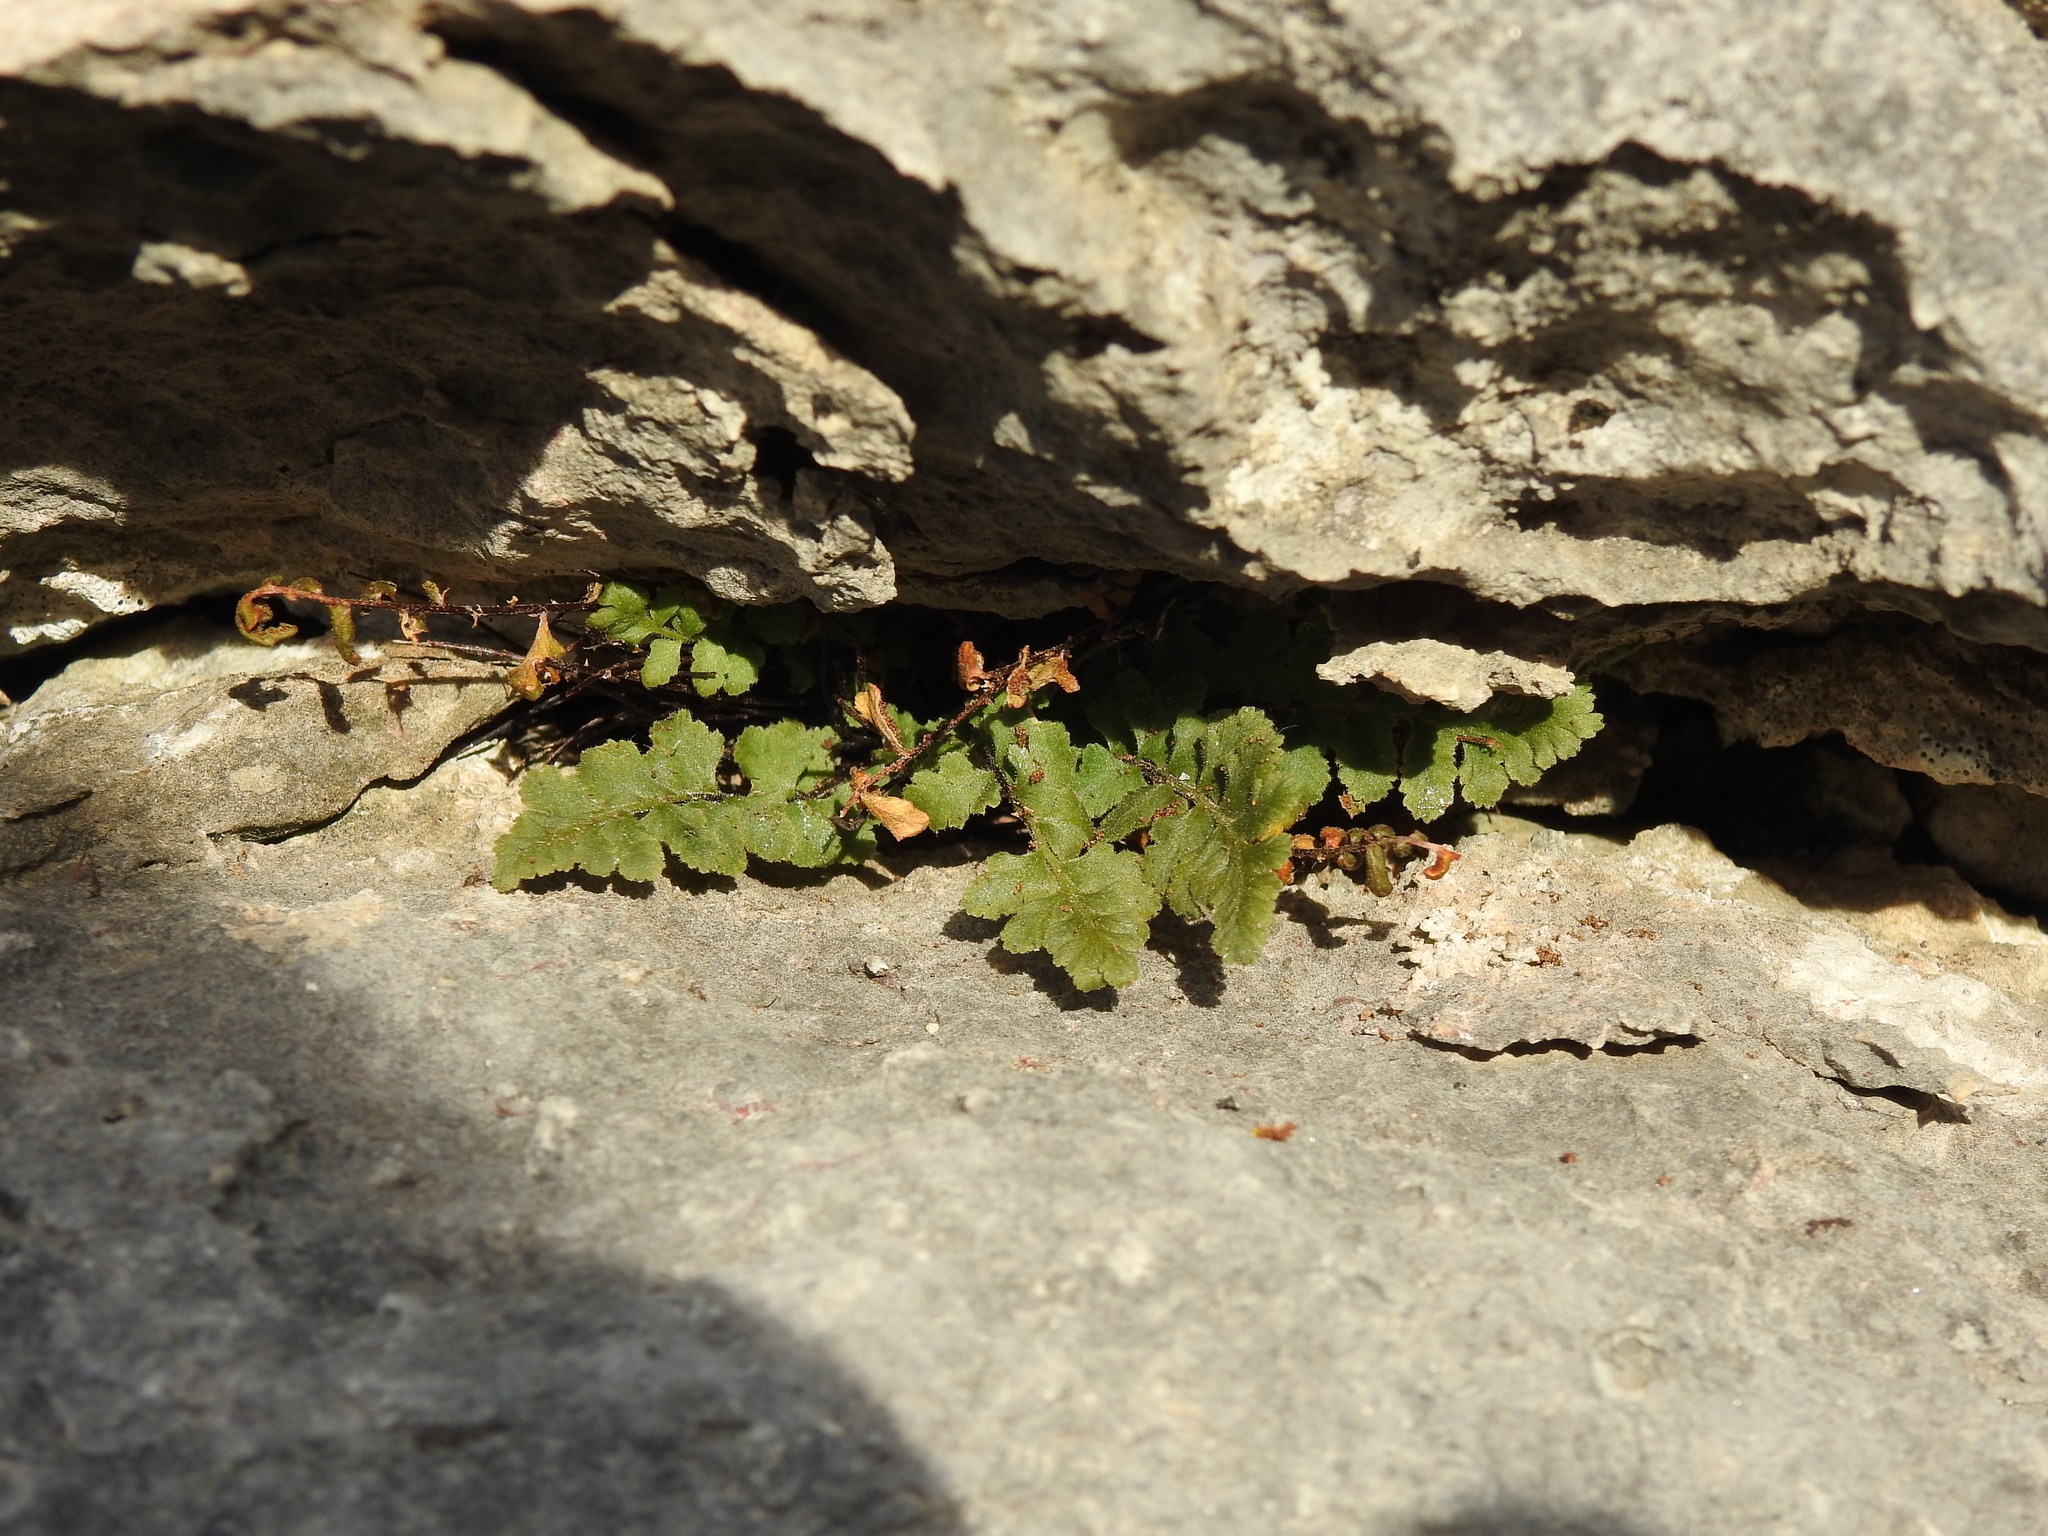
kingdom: Plantae
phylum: Tracheophyta
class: Polypodiopsida
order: Polypodiales
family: Aspleniaceae
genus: Asplenium
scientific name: Asplenium petrarchae
